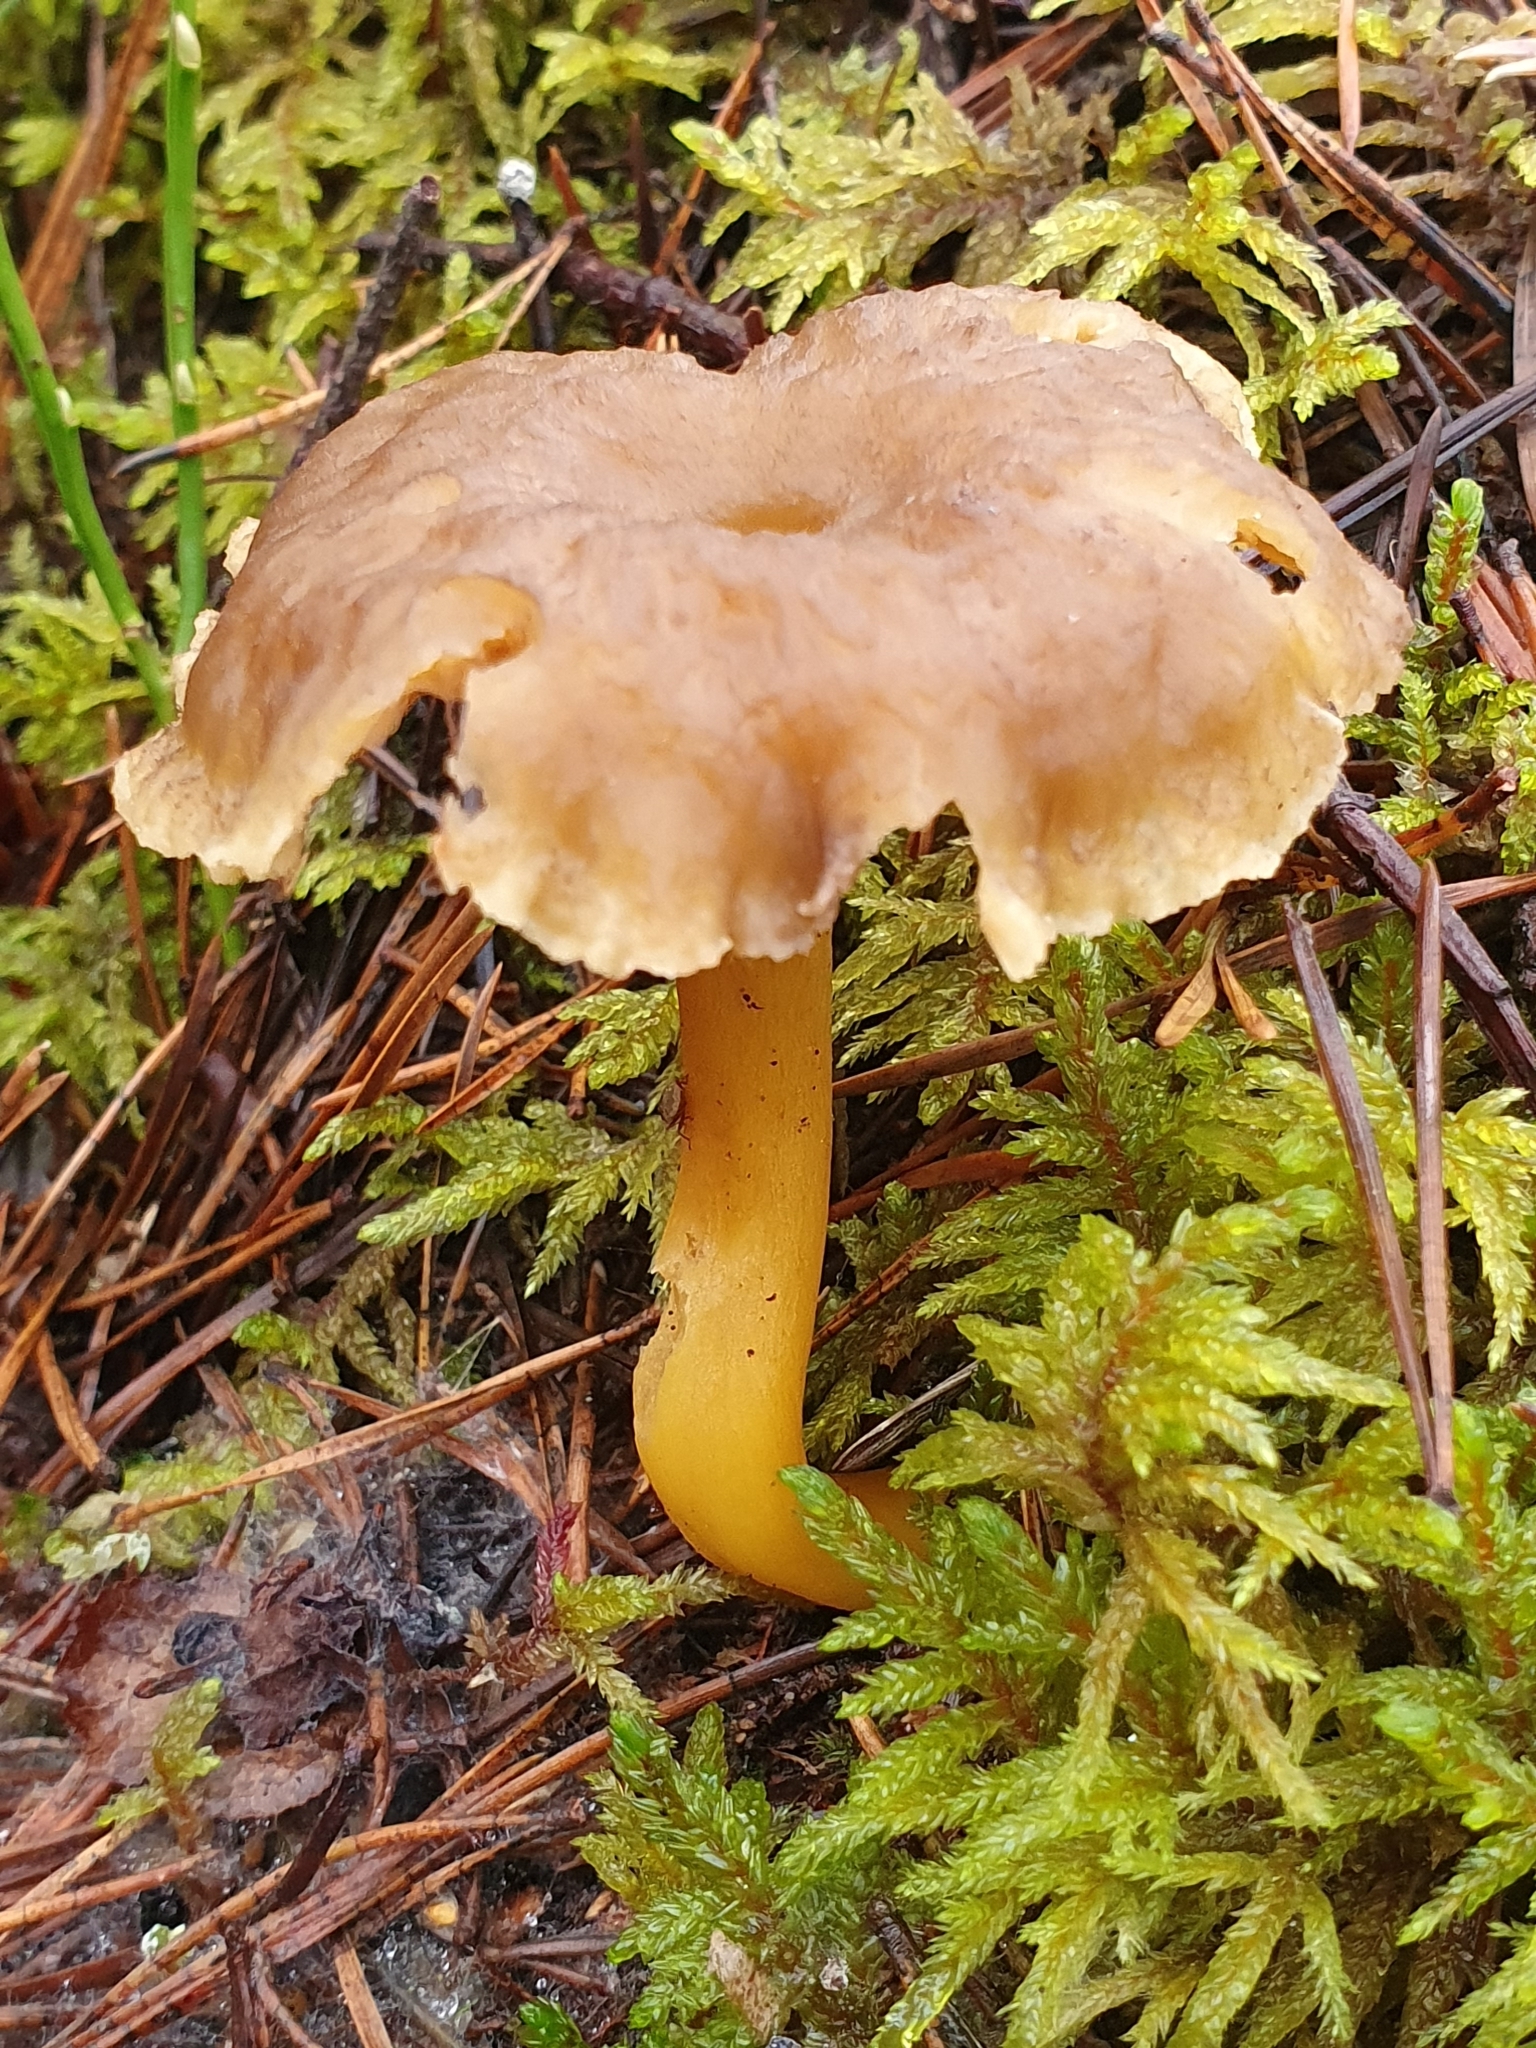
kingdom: Fungi
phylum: Basidiomycota
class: Agaricomycetes
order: Cantharellales
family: Hydnaceae
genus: Craterellus
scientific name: Craterellus tubaeformis
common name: Yellowfoot
